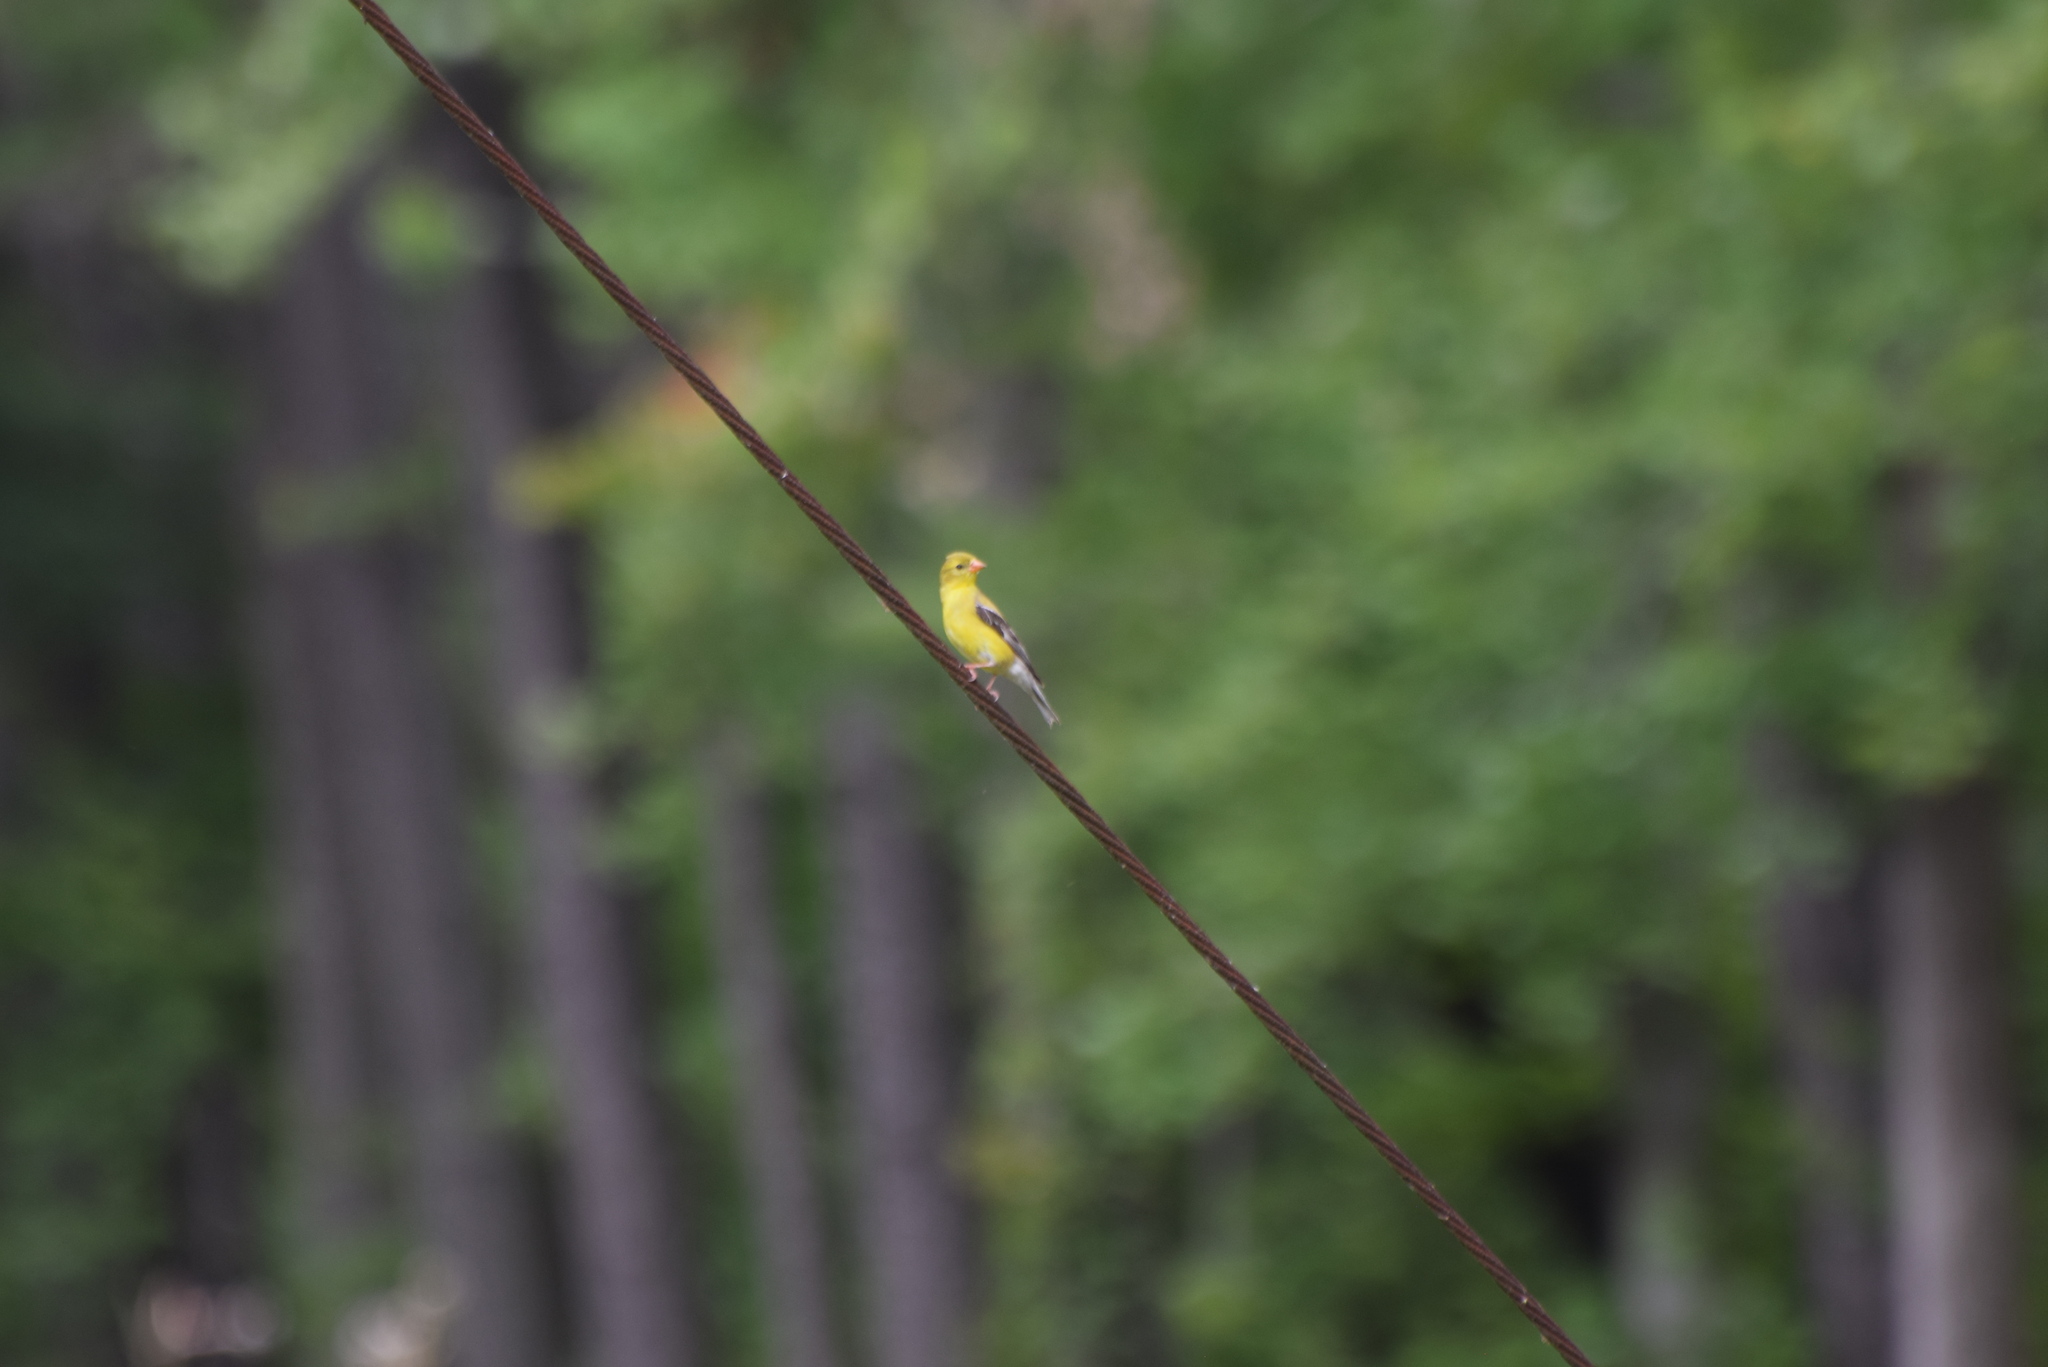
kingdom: Animalia
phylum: Chordata
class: Aves
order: Passeriformes
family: Fringillidae
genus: Spinus
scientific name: Spinus tristis
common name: American goldfinch
